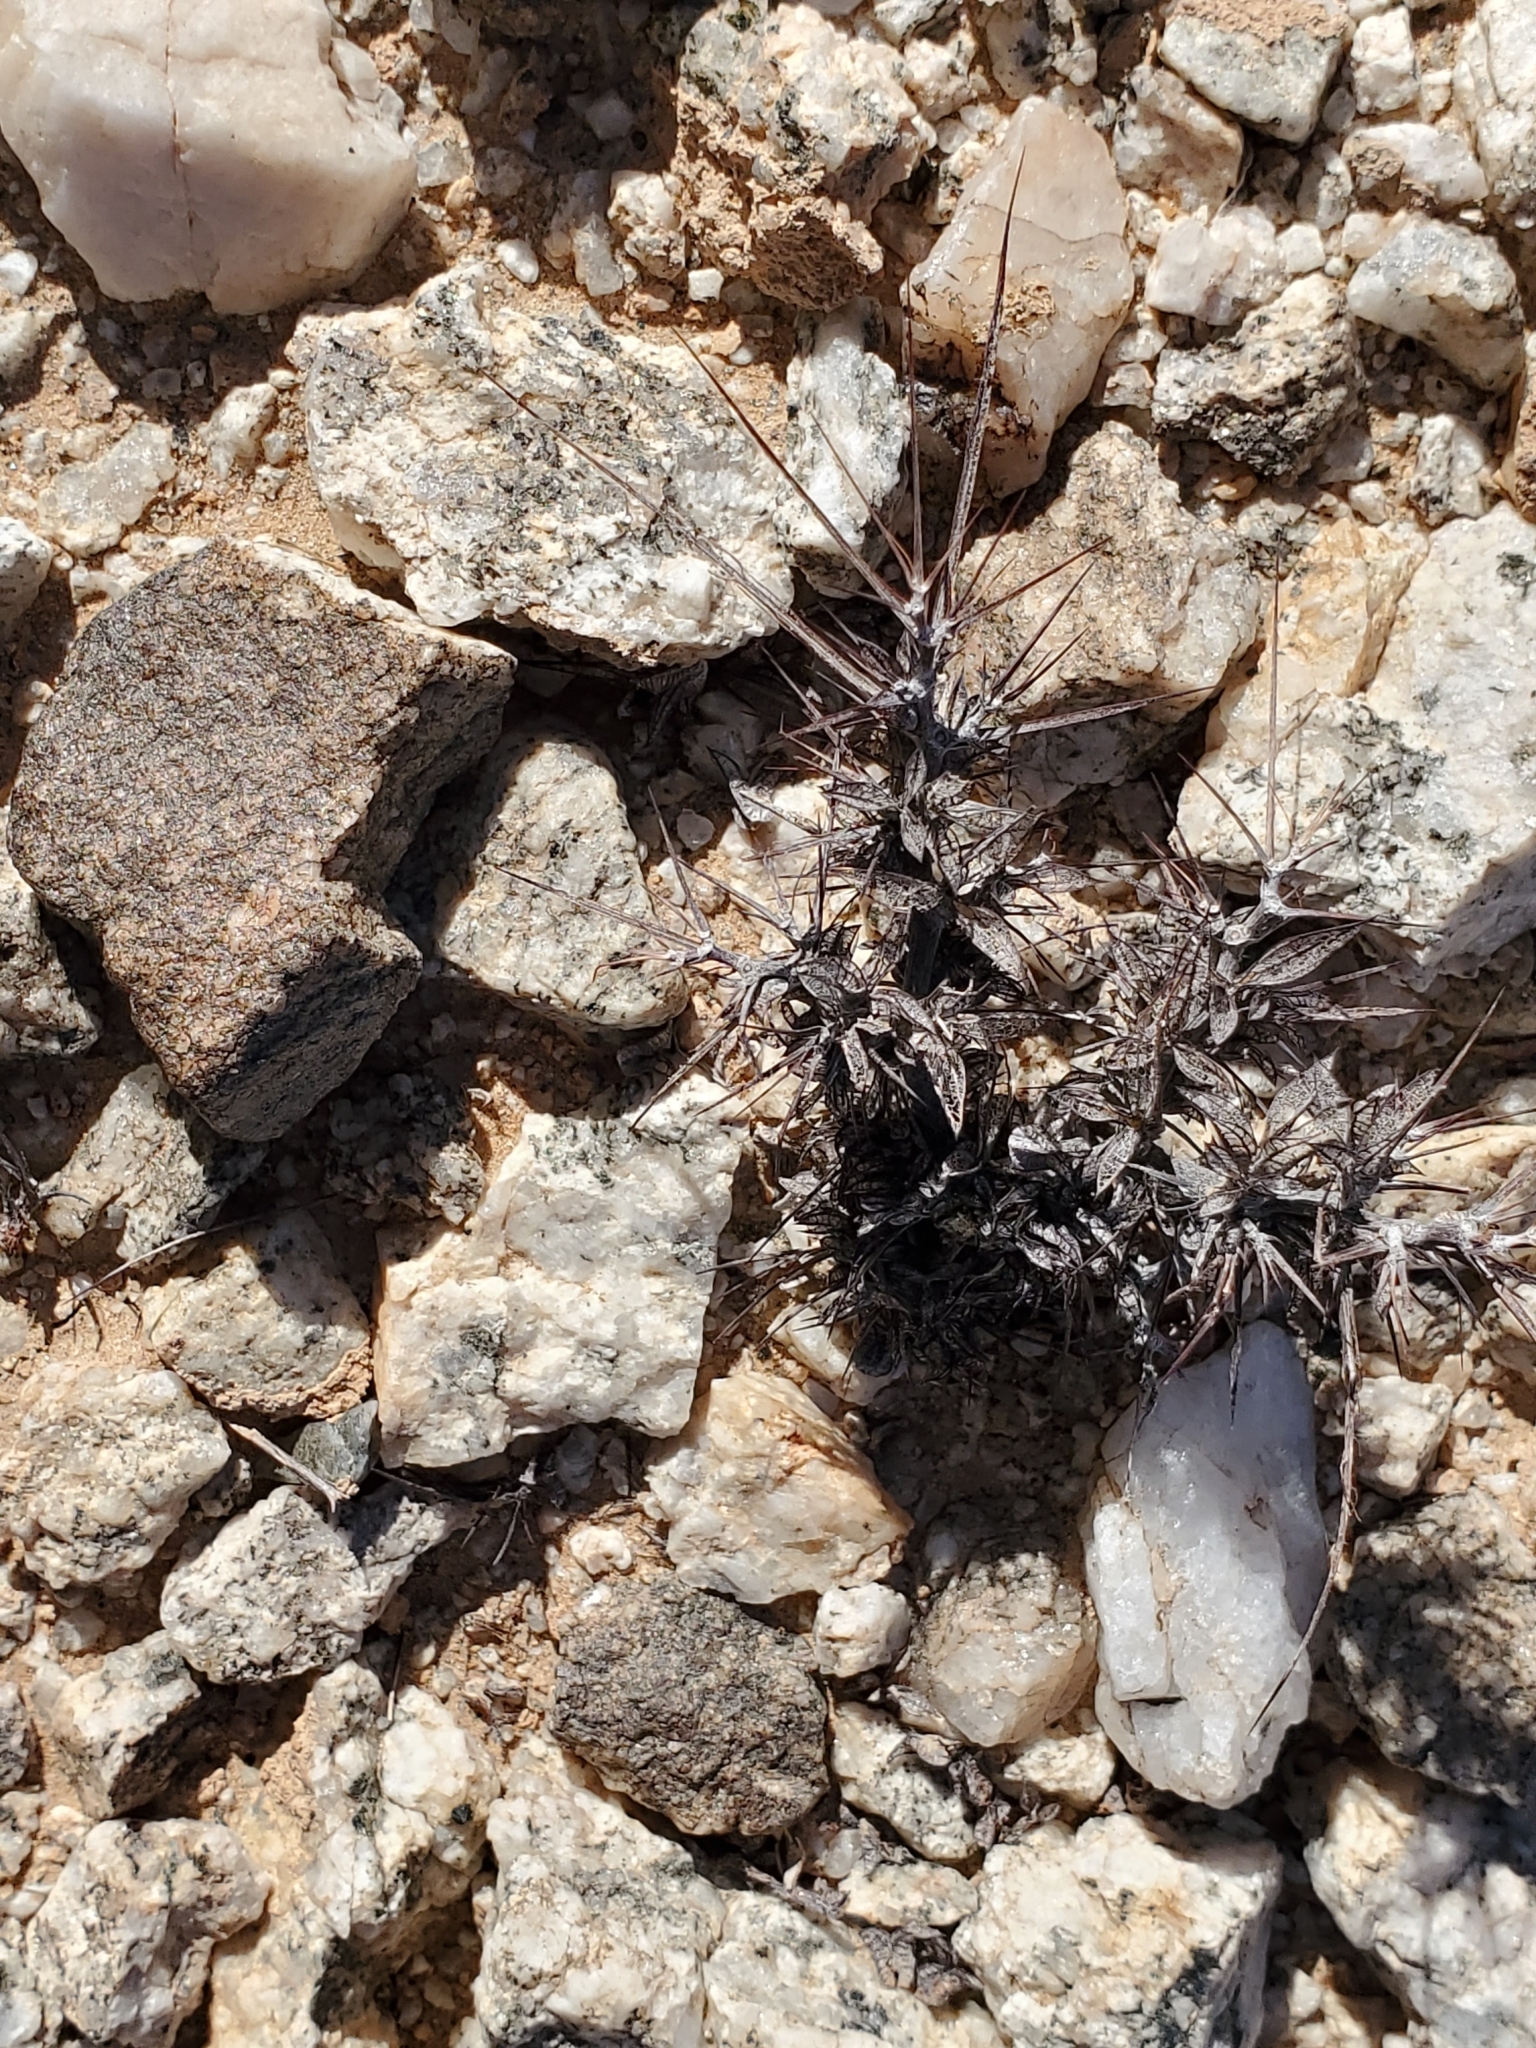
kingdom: Plantae
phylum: Tracheophyta
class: Magnoliopsida
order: Caryophyllales
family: Polygonaceae
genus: Chorizanthe
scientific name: Chorizanthe rigida
